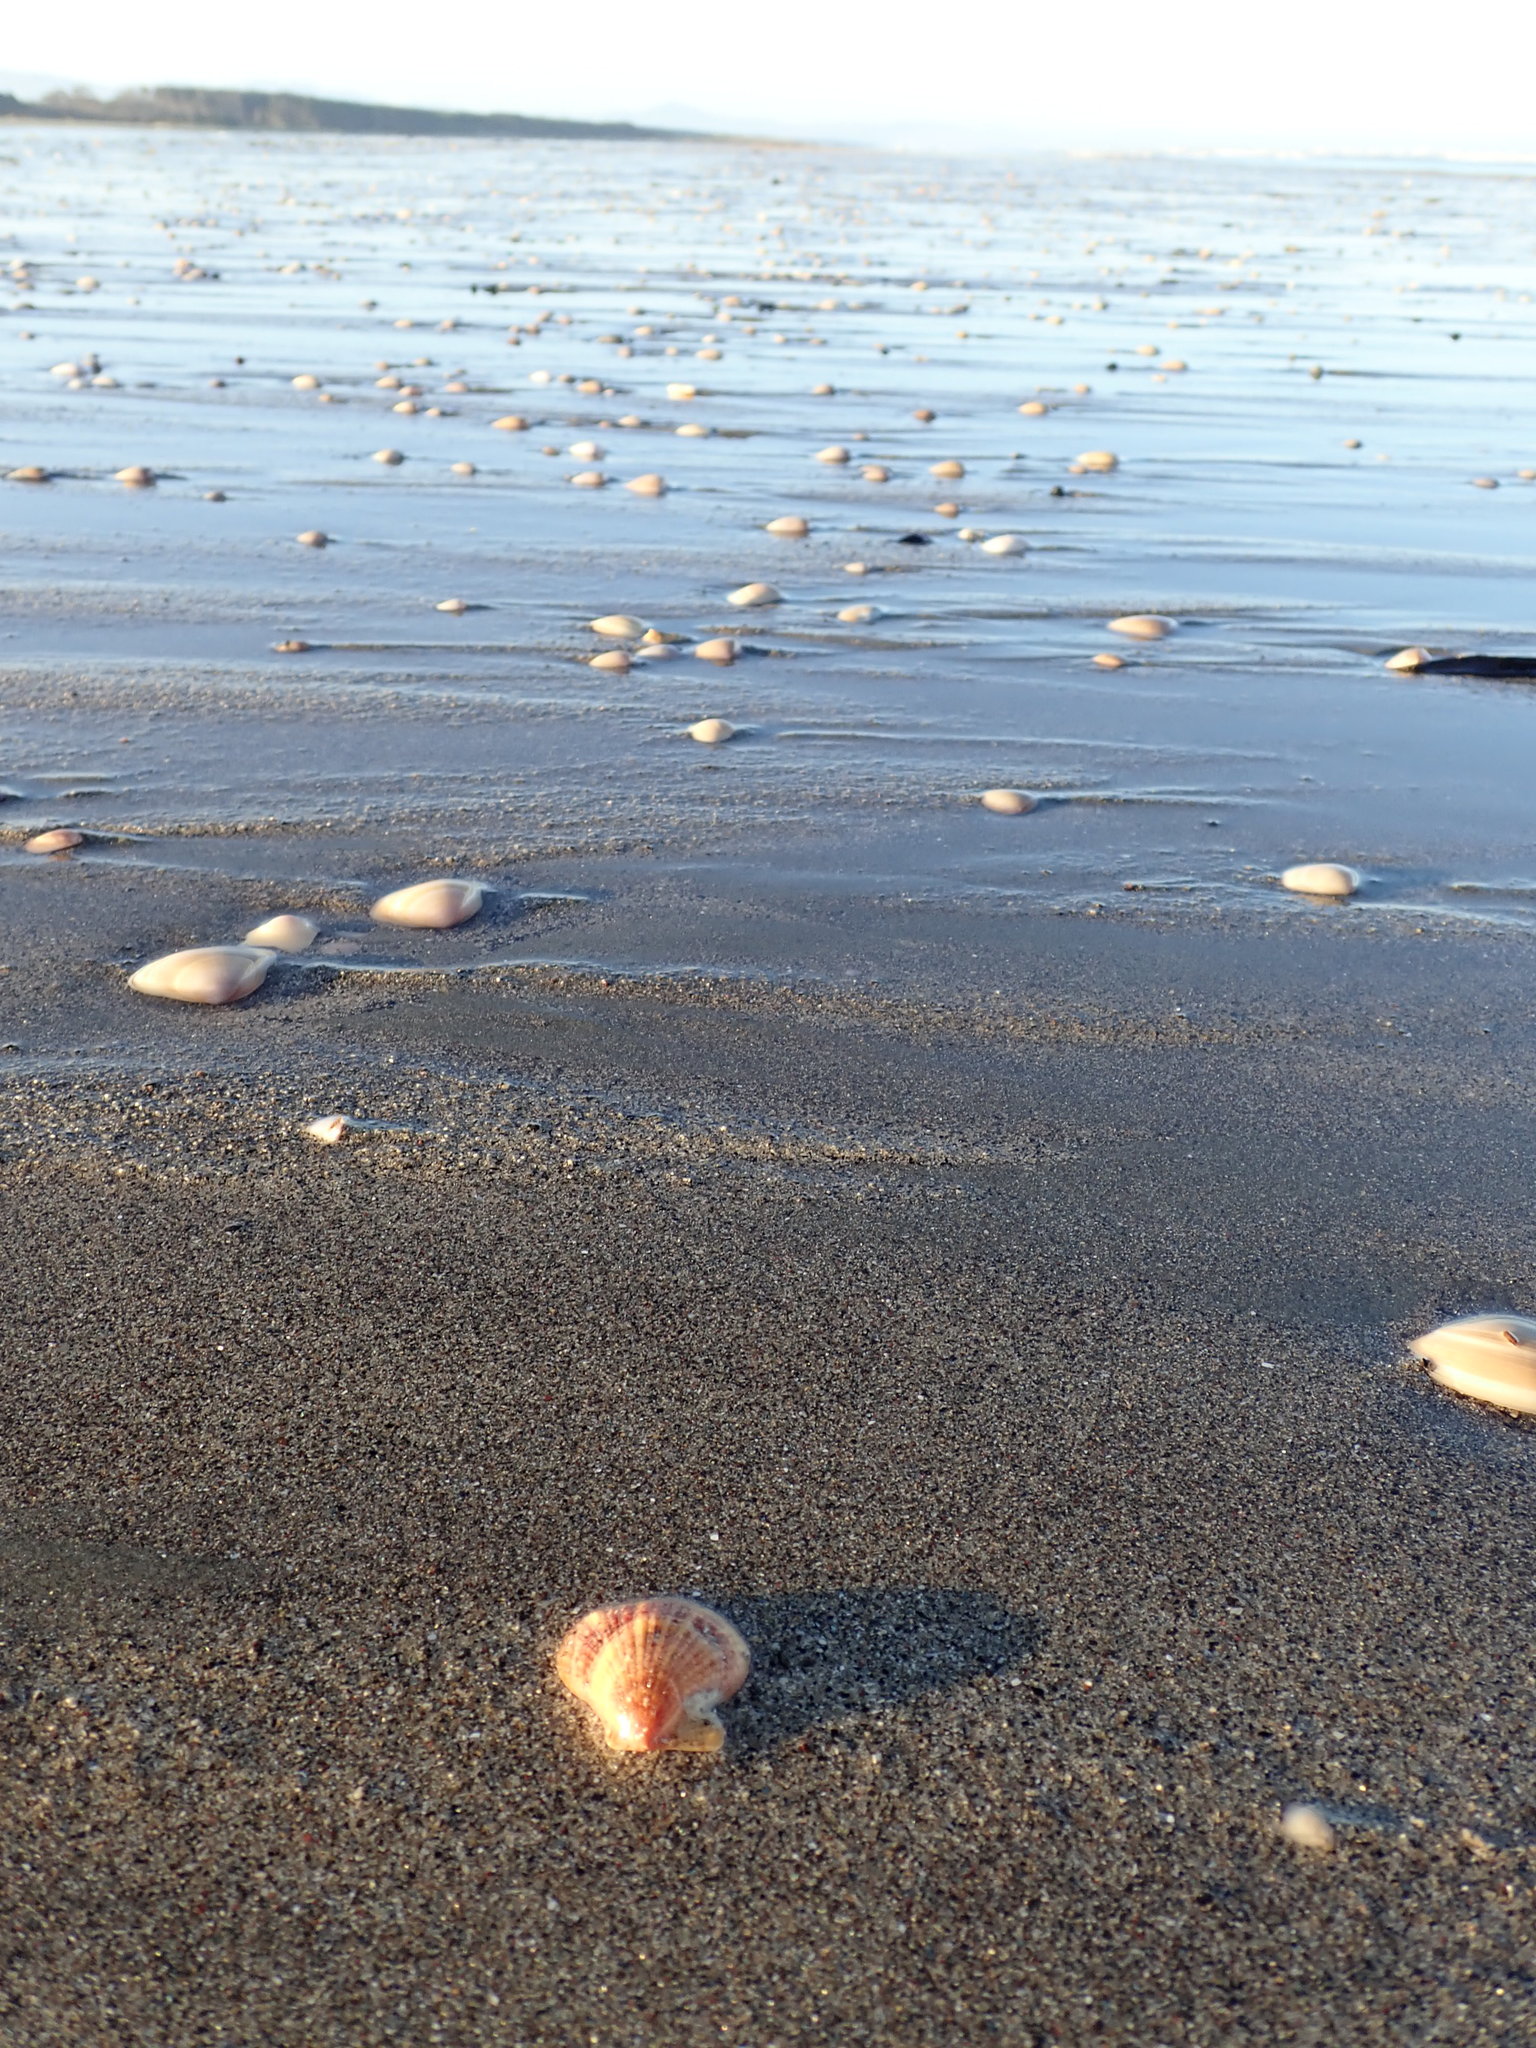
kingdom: Animalia
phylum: Mollusca
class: Bivalvia
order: Pectinida
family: Pectinidae
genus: Talochlamys
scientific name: Talochlamys zelandiae
